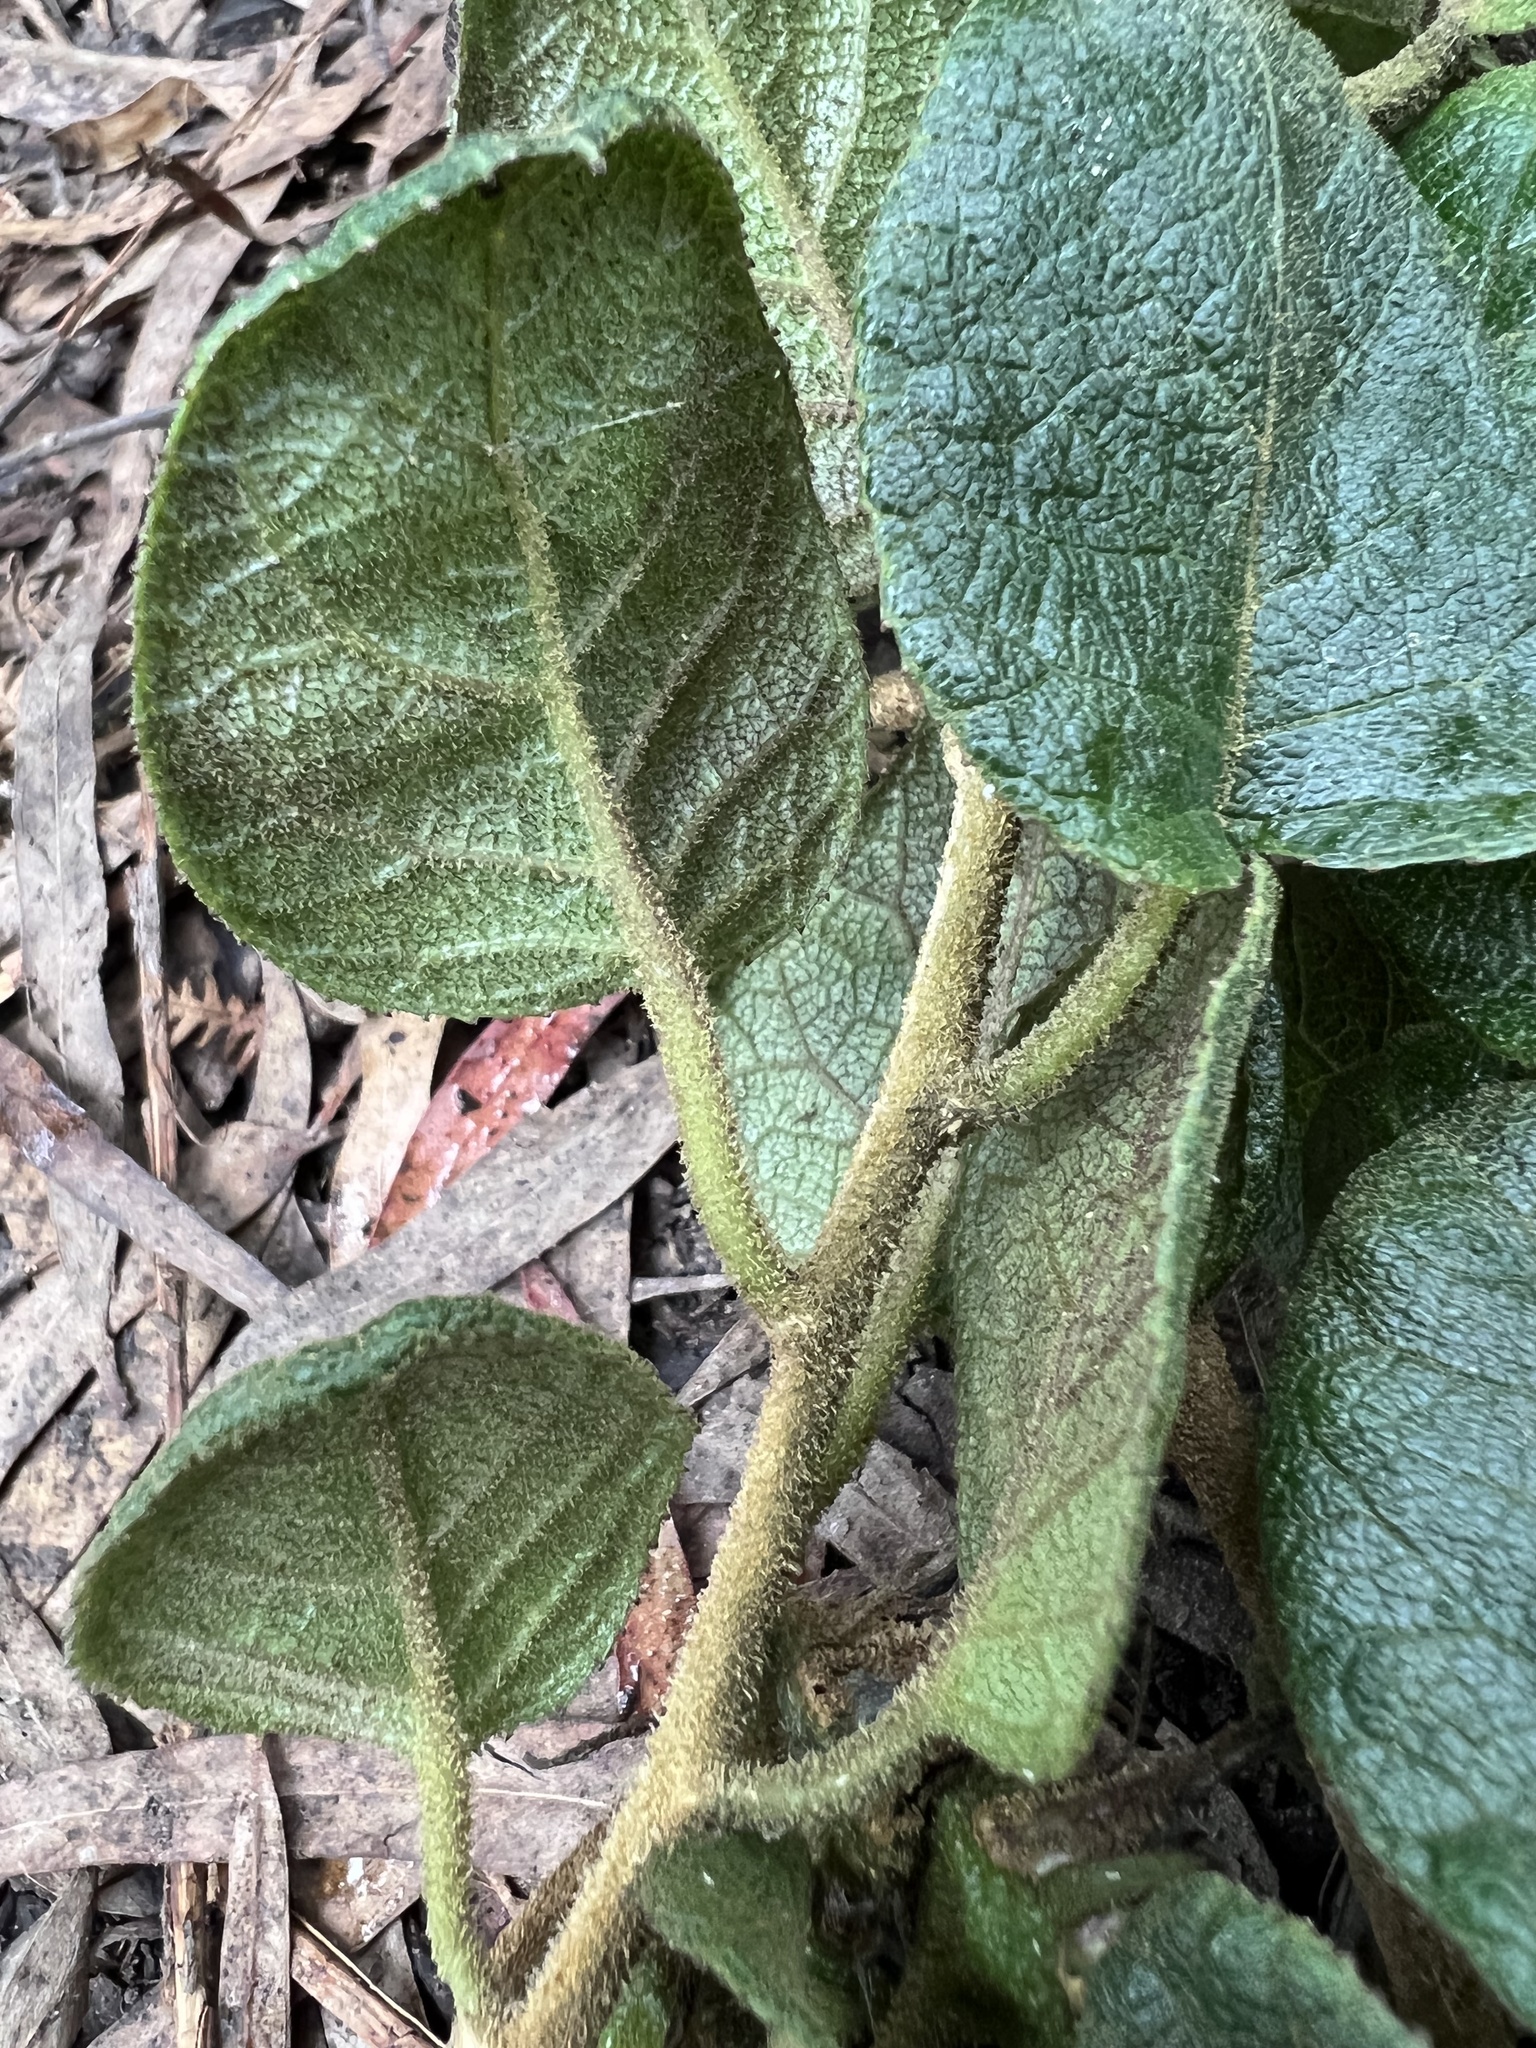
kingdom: Plantae
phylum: Tracheophyta
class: Magnoliopsida
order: Asterales
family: Campanulaceae
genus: Siphocampylus
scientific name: Siphocampylus purdieanus
